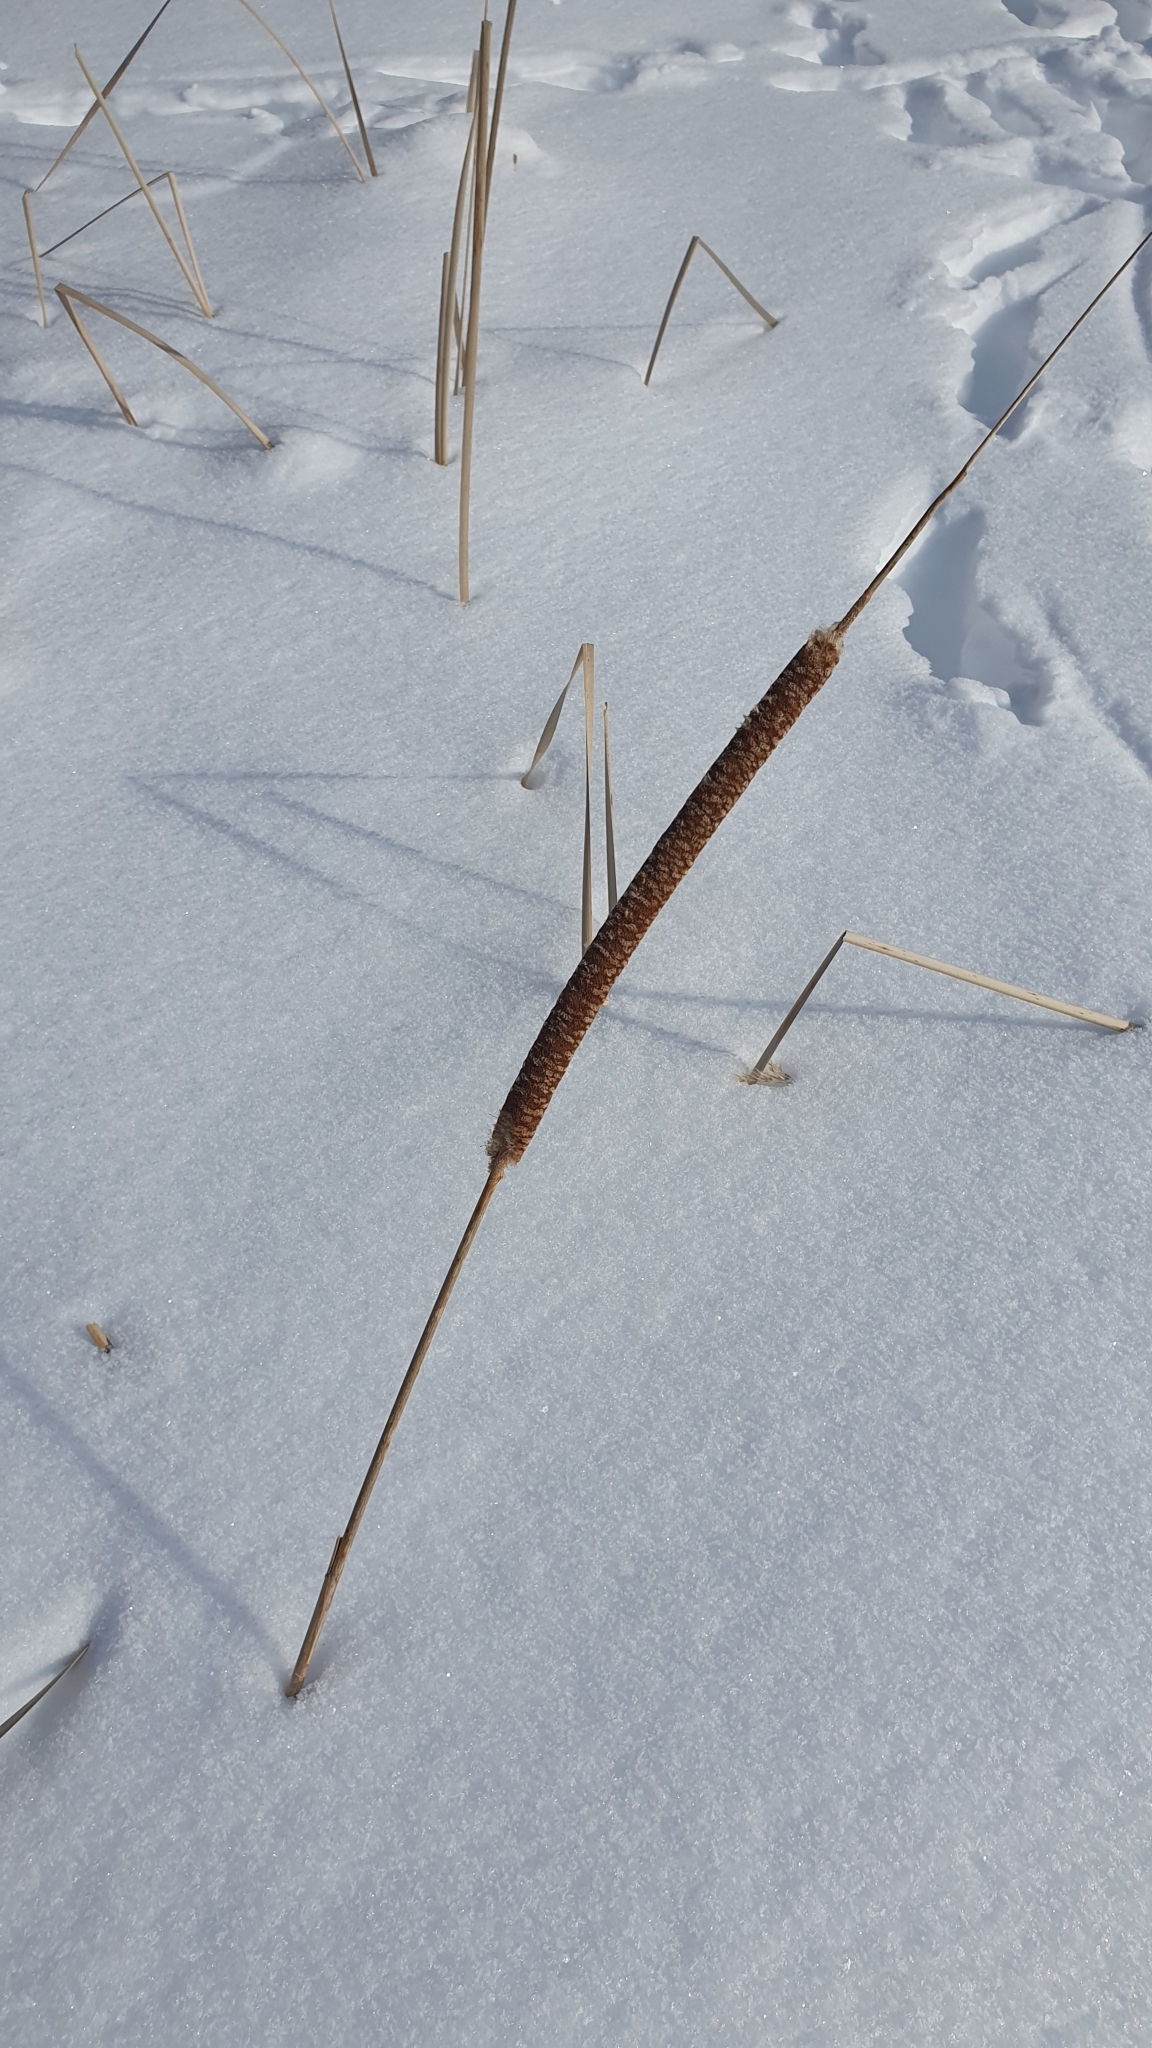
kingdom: Plantae
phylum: Tracheophyta
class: Liliopsida
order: Poales
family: Typhaceae
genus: Typha
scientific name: Typha angustifolia
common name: Lesser bulrush
